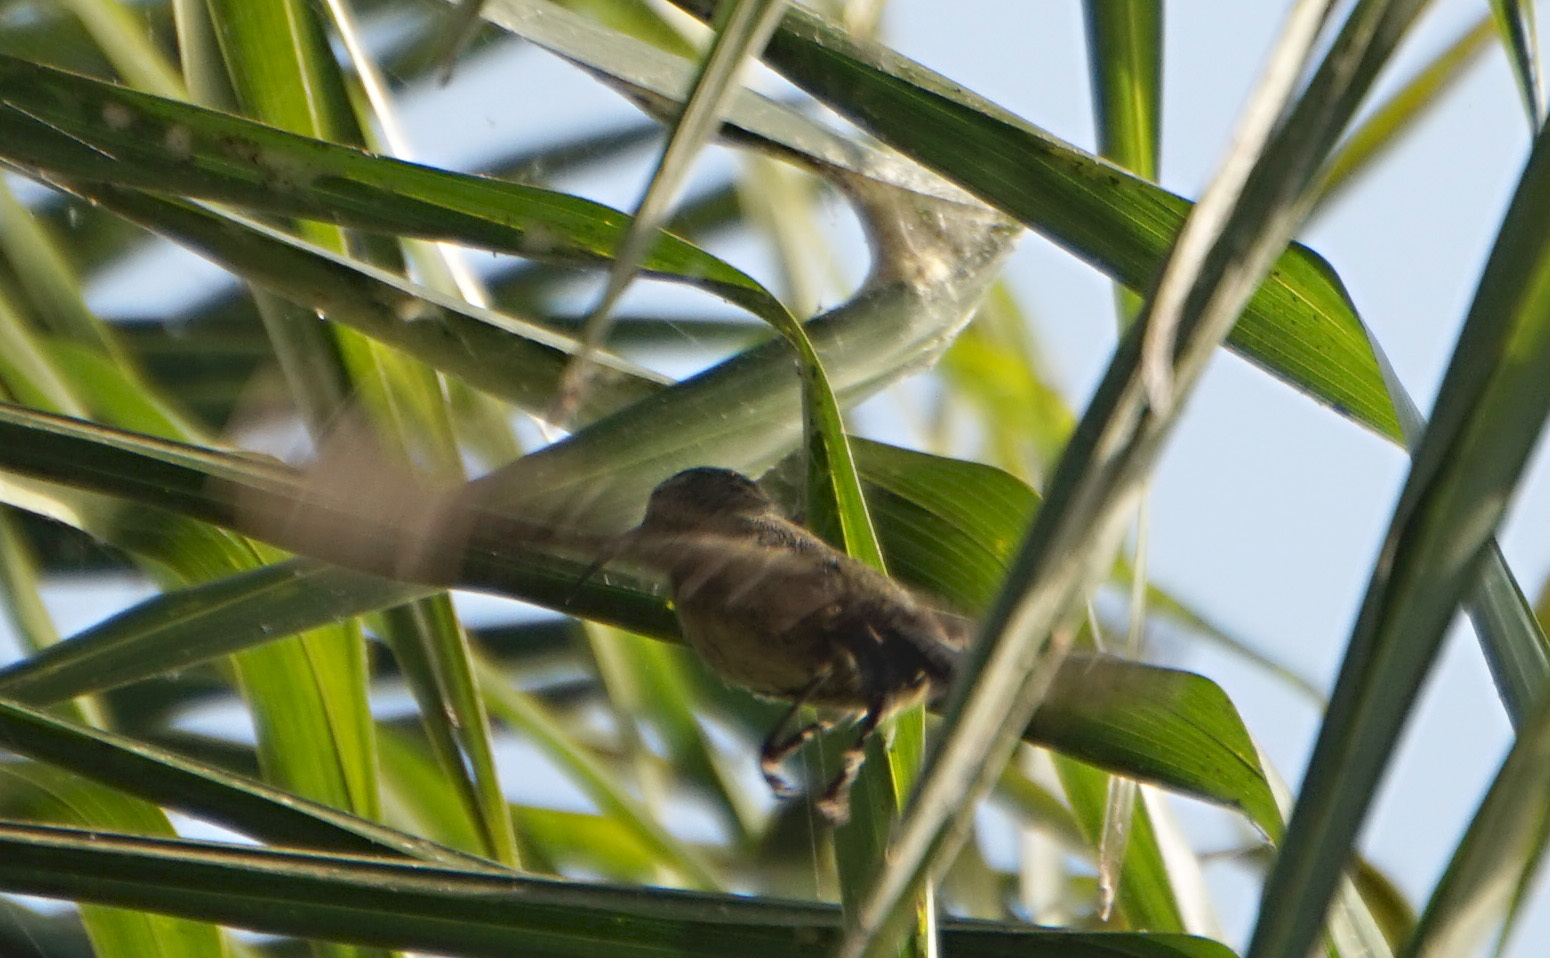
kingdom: Animalia
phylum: Chordata
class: Aves
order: Passeriformes
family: Nectariniidae
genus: Chalcomitra
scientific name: Chalcomitra senegalensis
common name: Scarlet-chested sunbird
